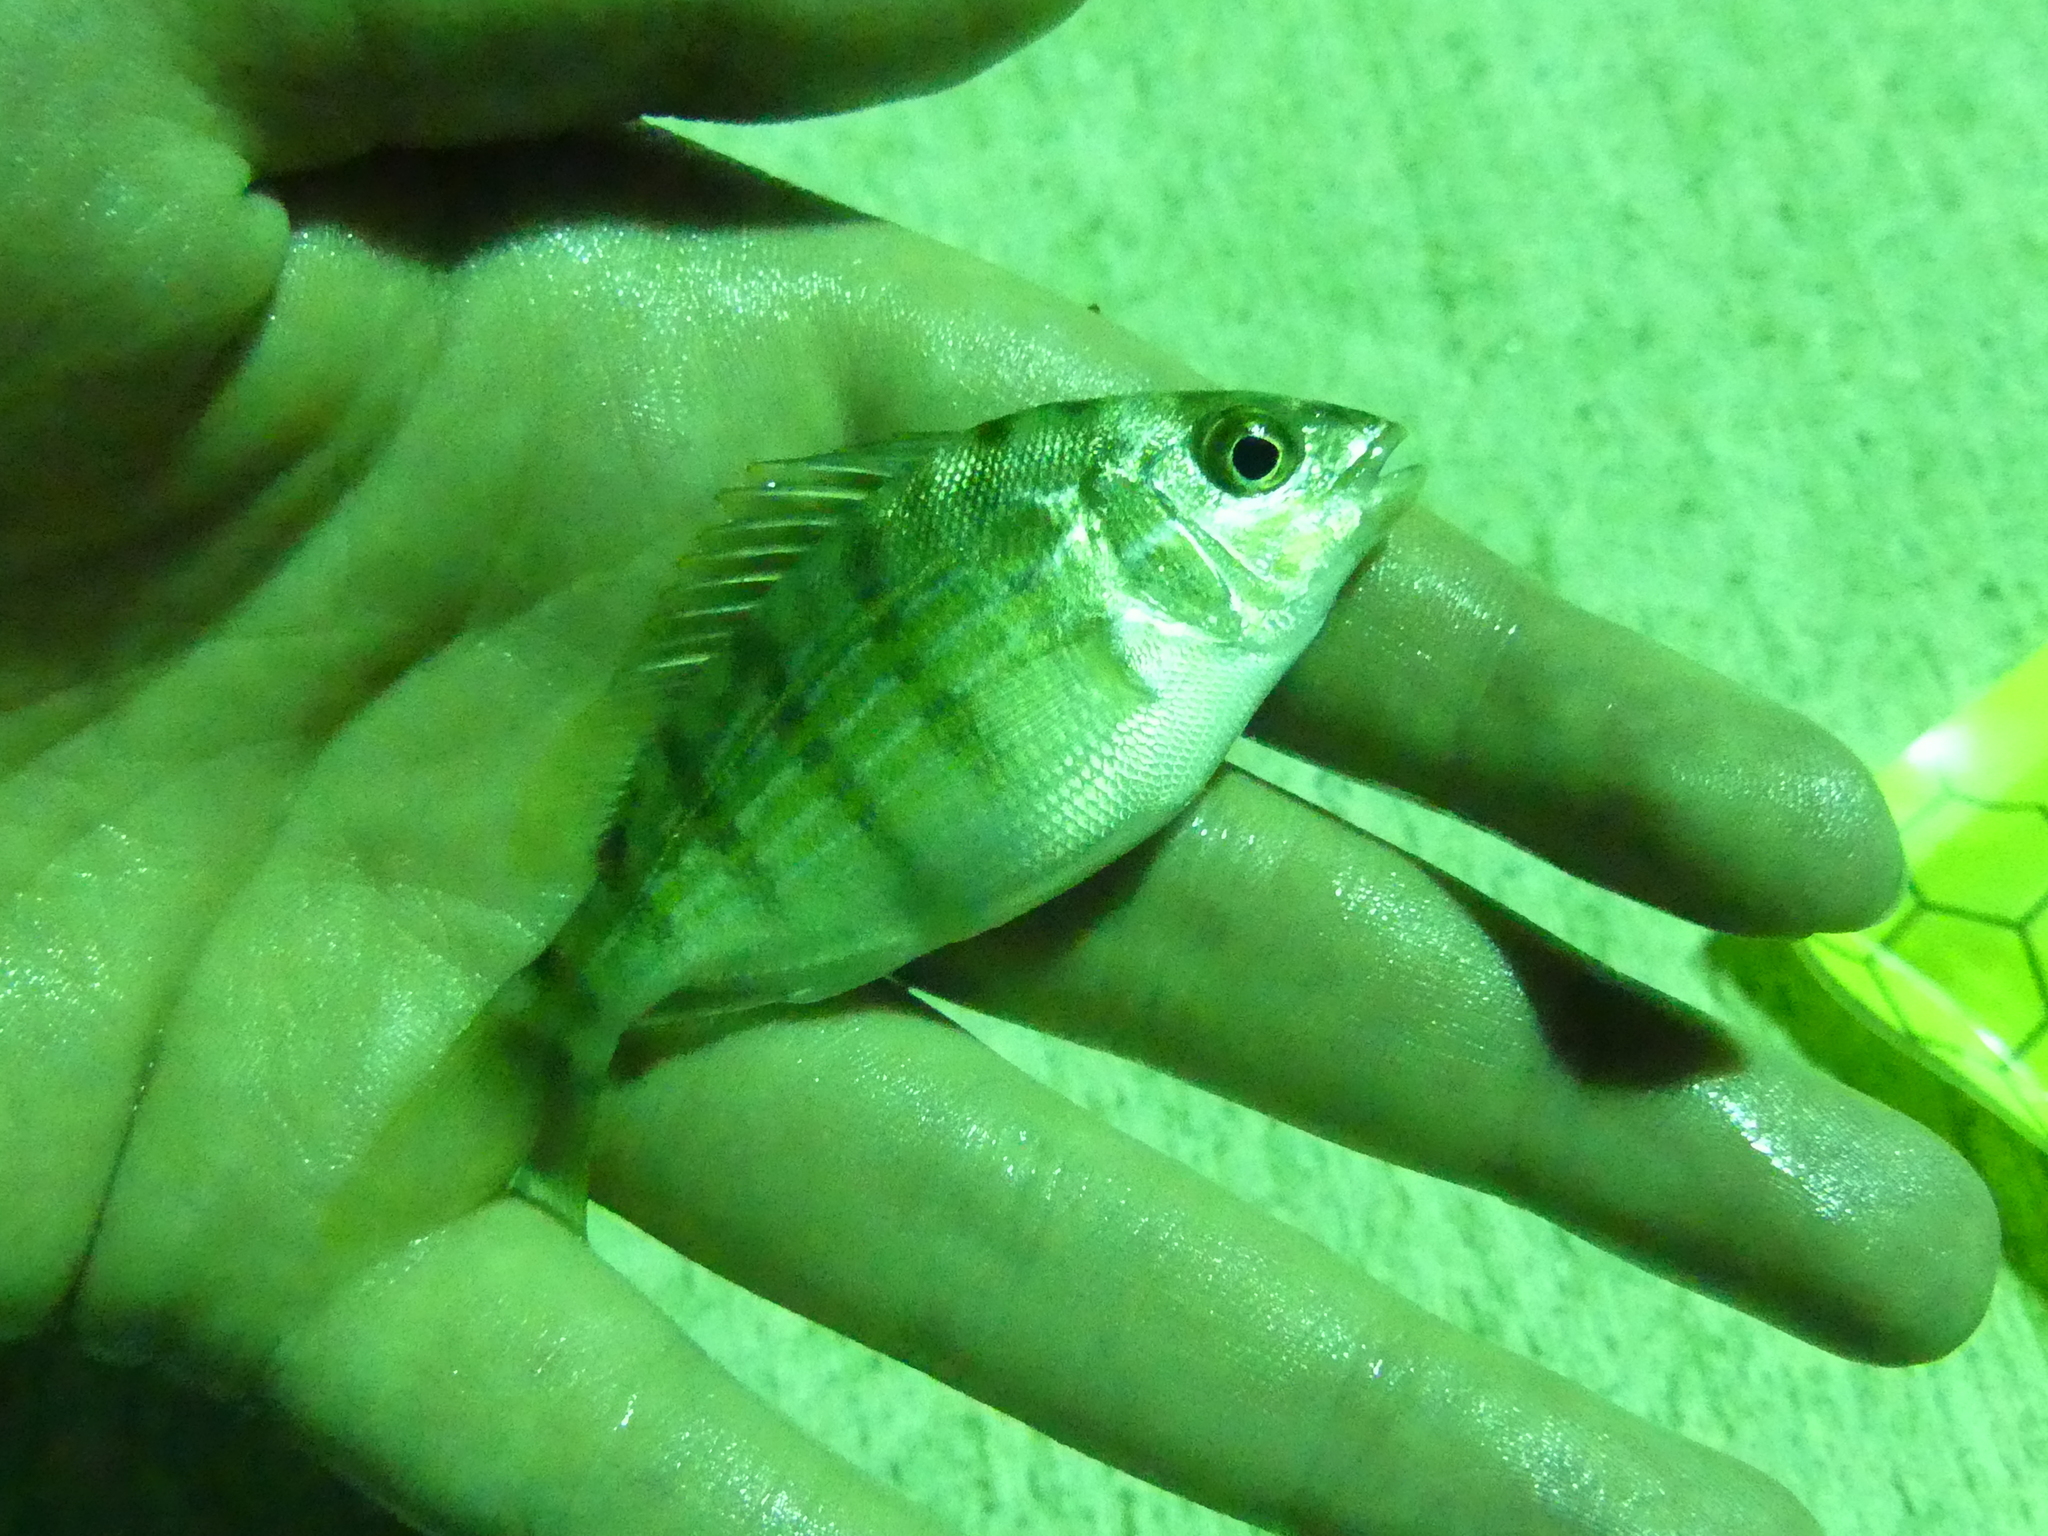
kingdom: Animalia
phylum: Chordata
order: Perciformes
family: Sparidae
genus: Lagodon
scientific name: Lagodon rhomboides
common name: Pinfish
